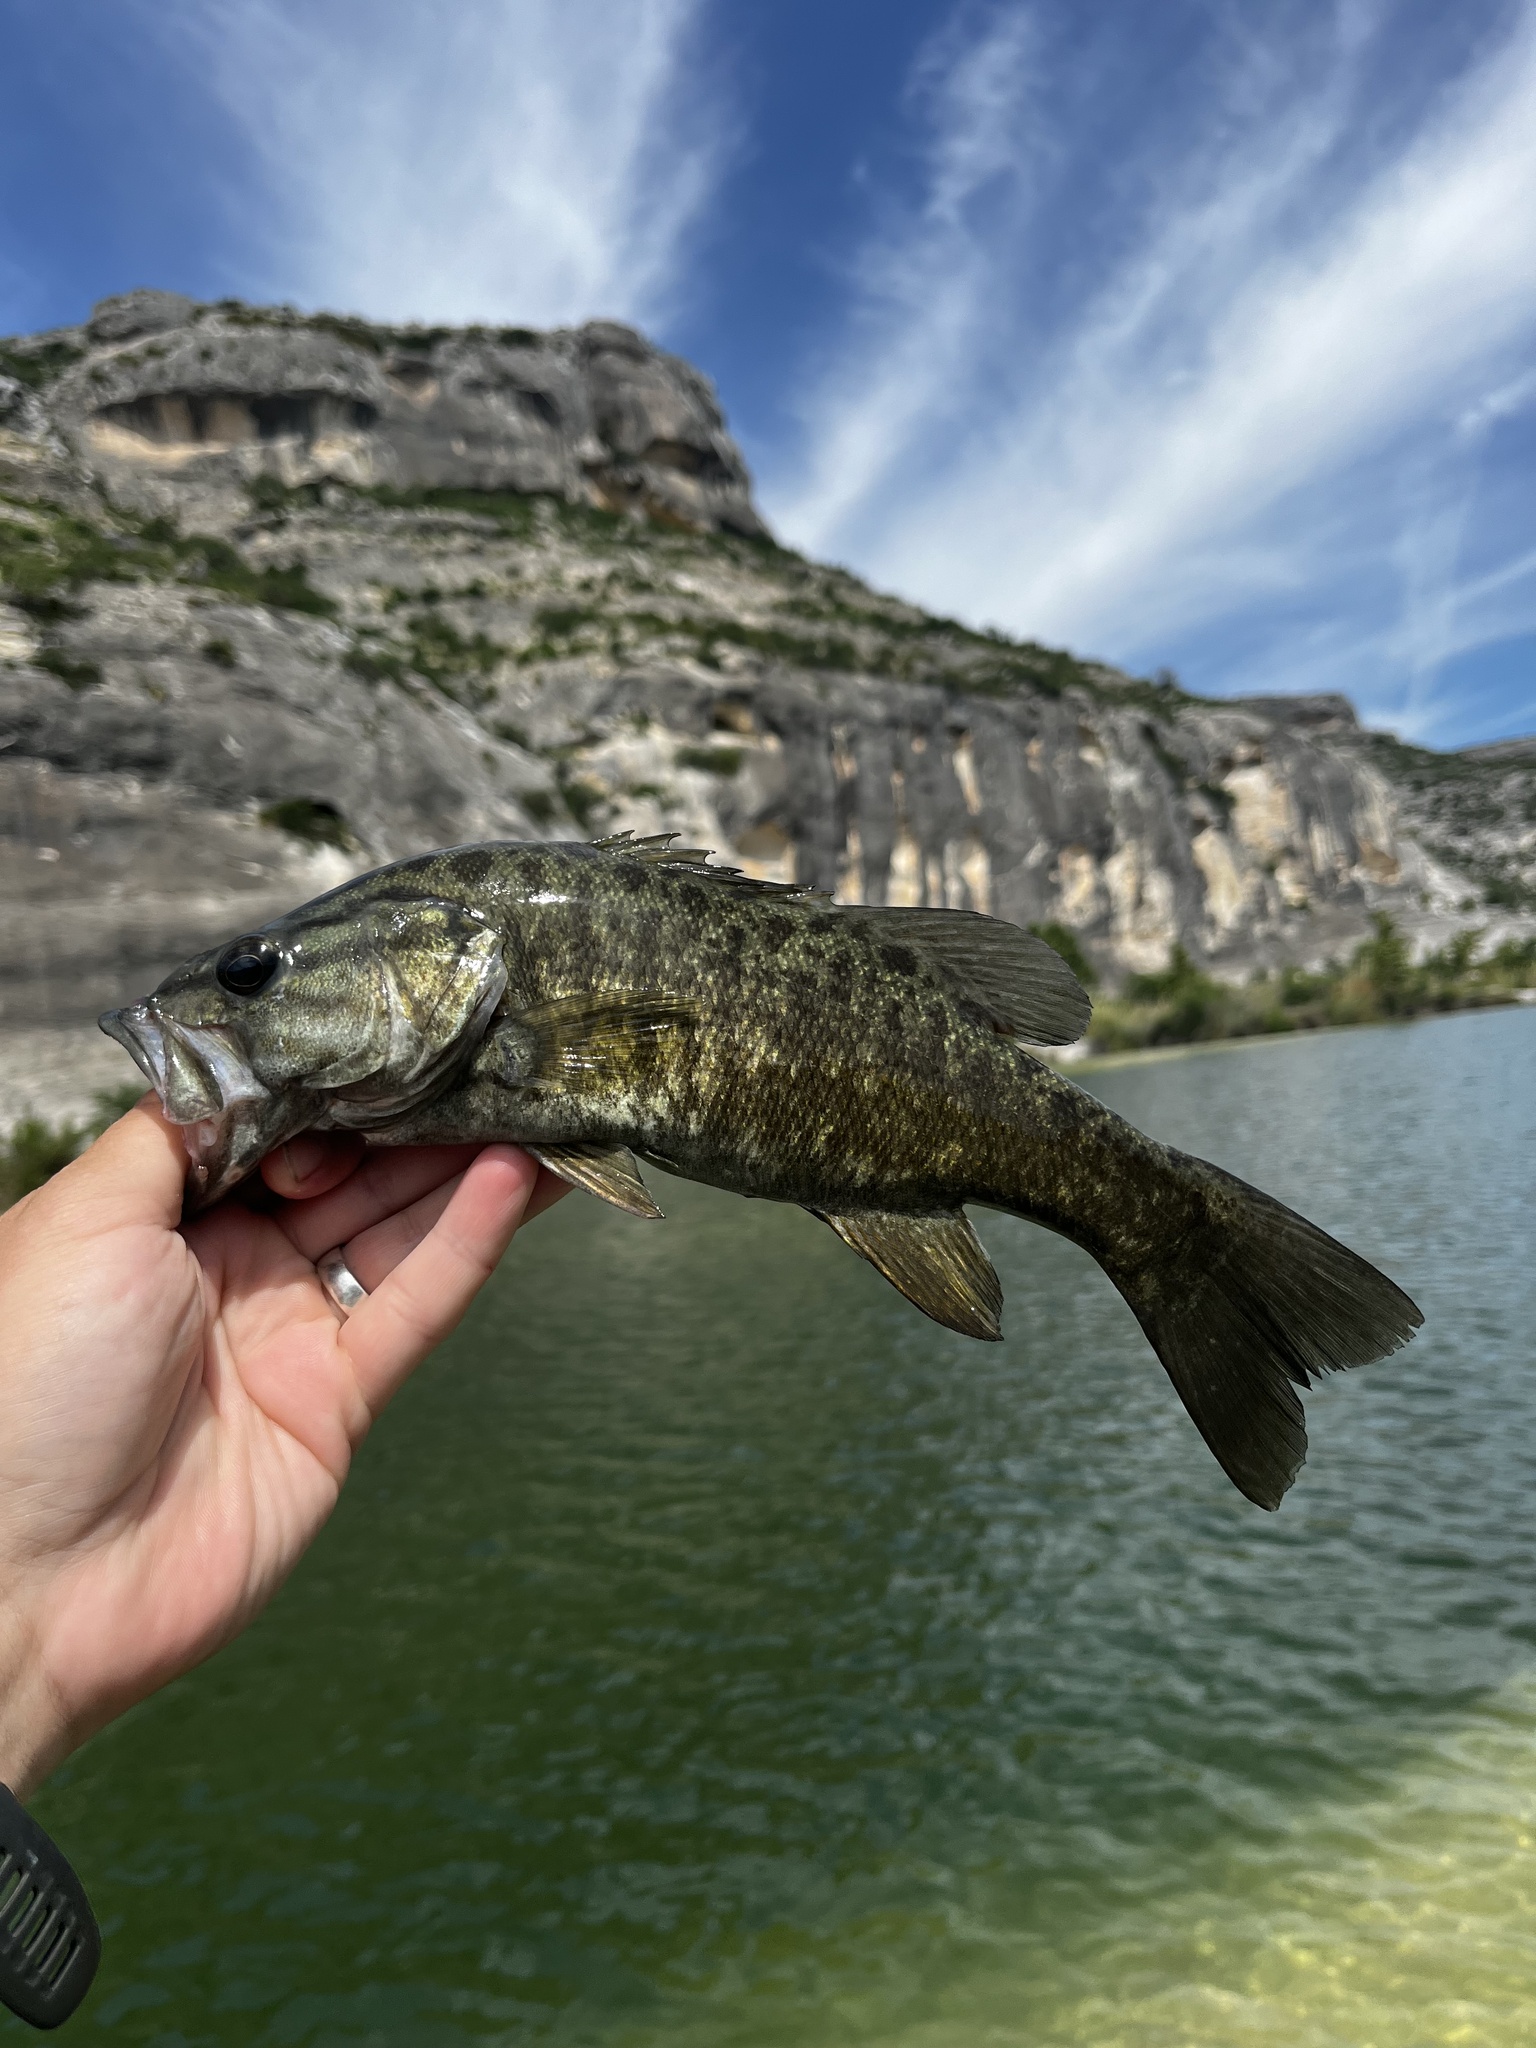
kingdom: Animalia
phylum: Chordata
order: Perciformes
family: Centrarchidae
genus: Micropterus
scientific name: Micropterus dolomieu
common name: Smallmouth bass
